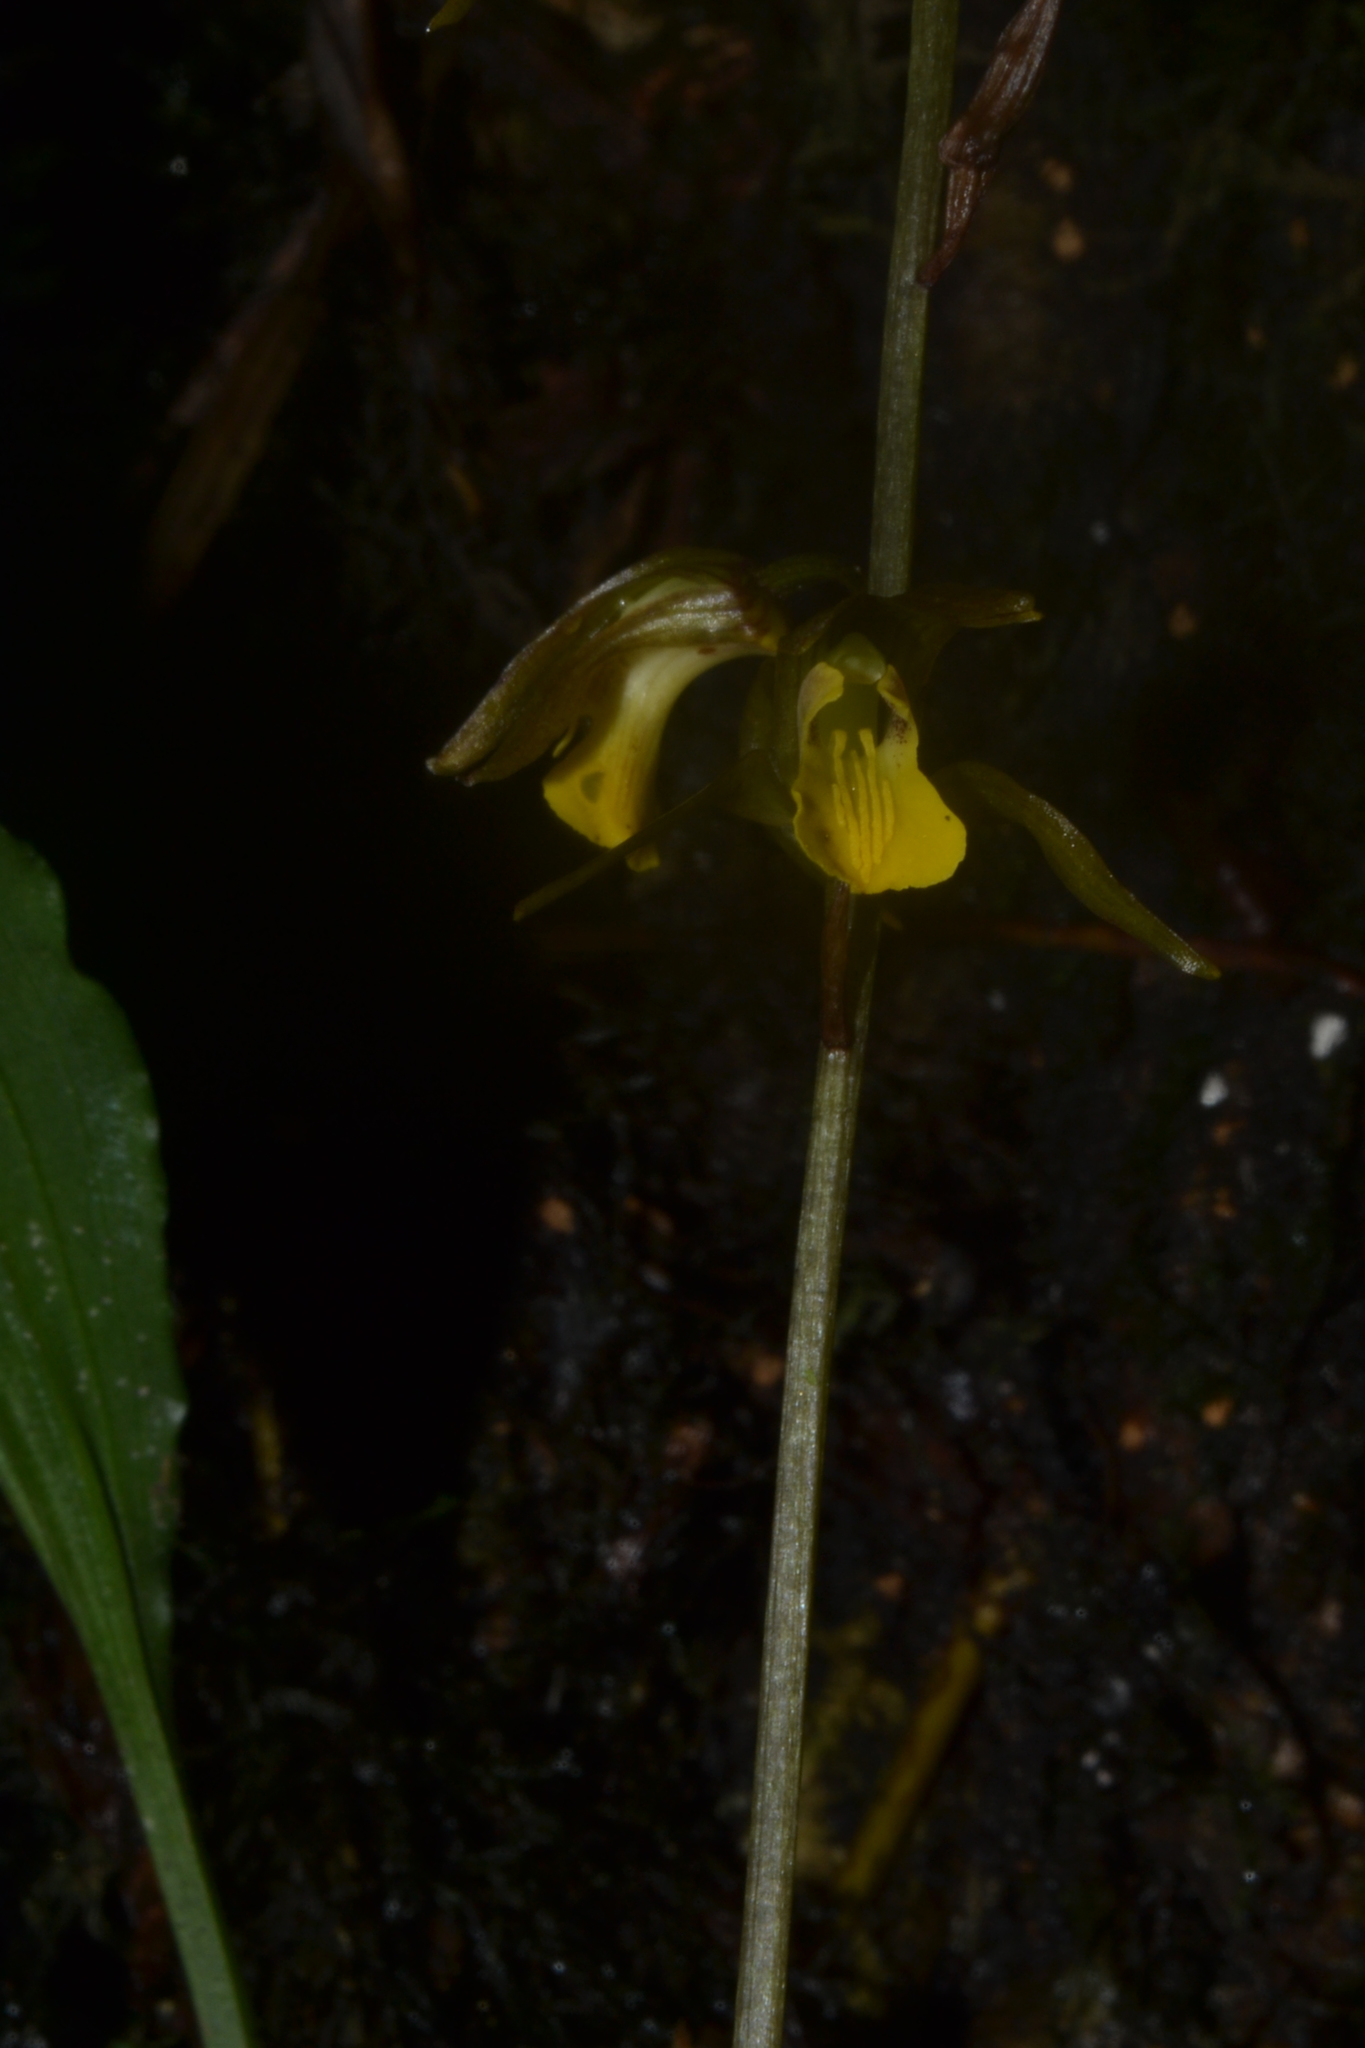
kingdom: Plantae
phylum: Tracheophyta
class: Liliopsida
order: Asparagales
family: Orchidaceae
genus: Tainia
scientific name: Tainia minor
